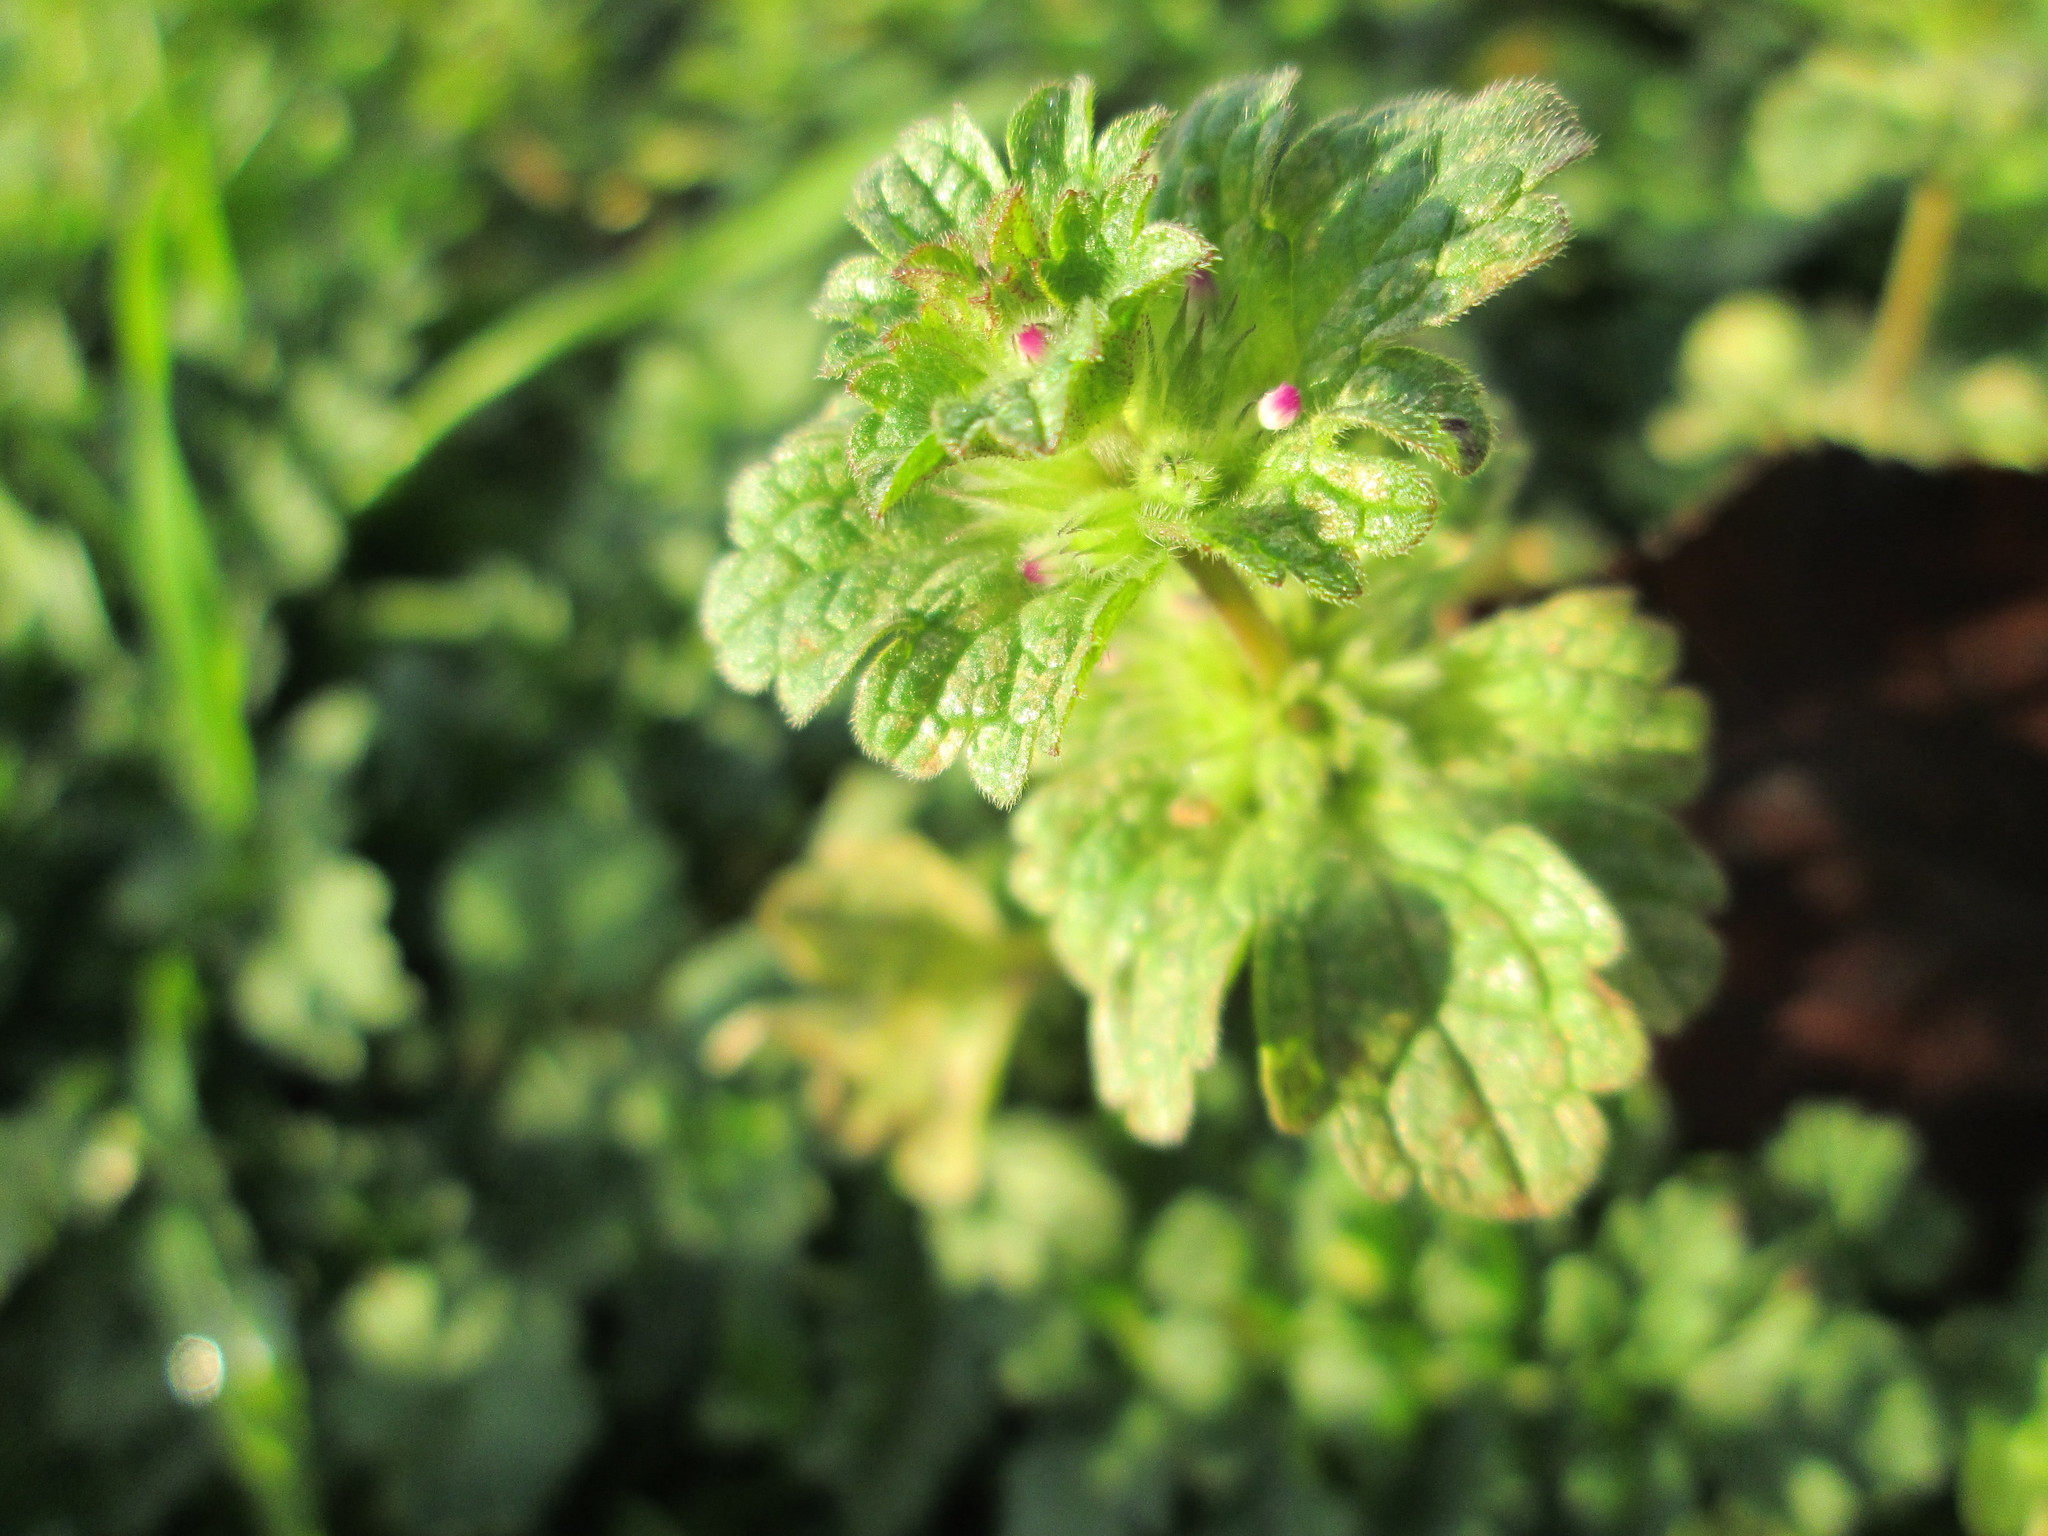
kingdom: Plantae
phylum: Tracheophyta
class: Magnoliopsida
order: Lamiales
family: Lamiaceae
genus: Lamium
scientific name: Lamium amplexicaule
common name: Henbit dead-nettle
